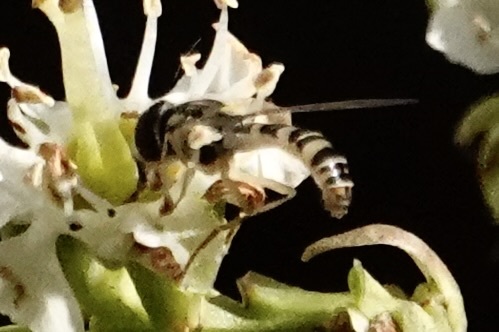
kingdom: Animalia
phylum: Arthropoda
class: Insecta
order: Diptera
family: Syrphidae
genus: Sphaerophoria
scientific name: Sphaerophoria contigua
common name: Tufted globetail
